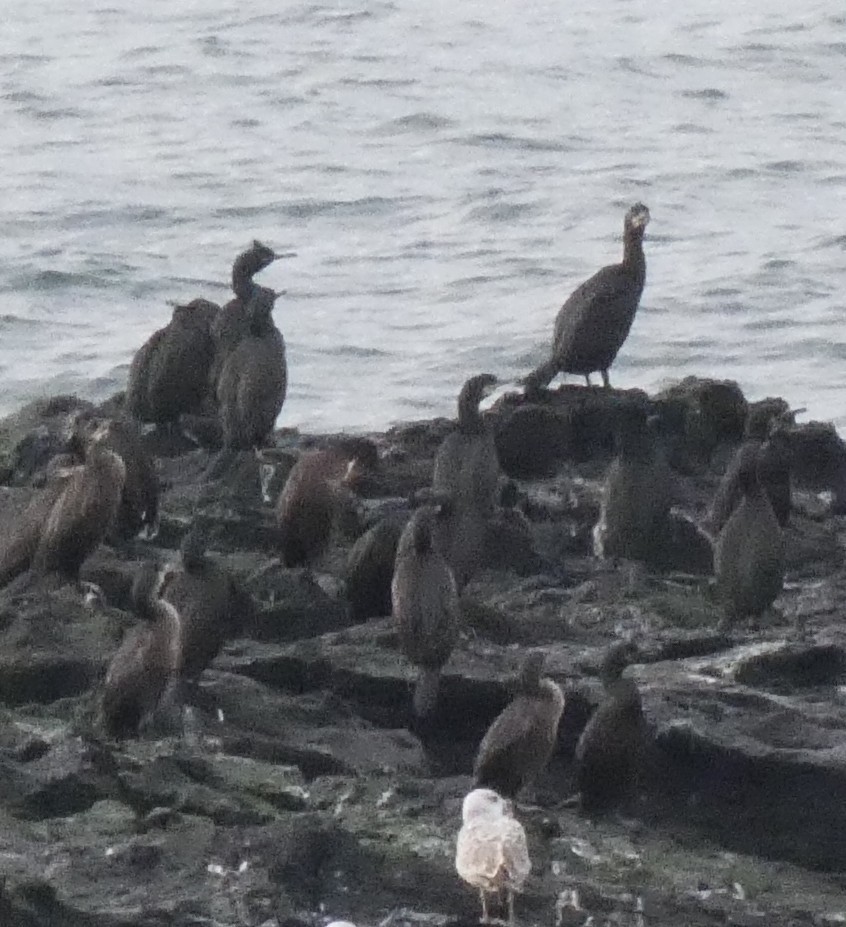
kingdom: Animalia
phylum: Chordata
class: Aves
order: Suliformes
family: Phalacrocoracidae
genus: Phalacrocorax
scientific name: Phalacrocorax aristotelis
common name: European shag
